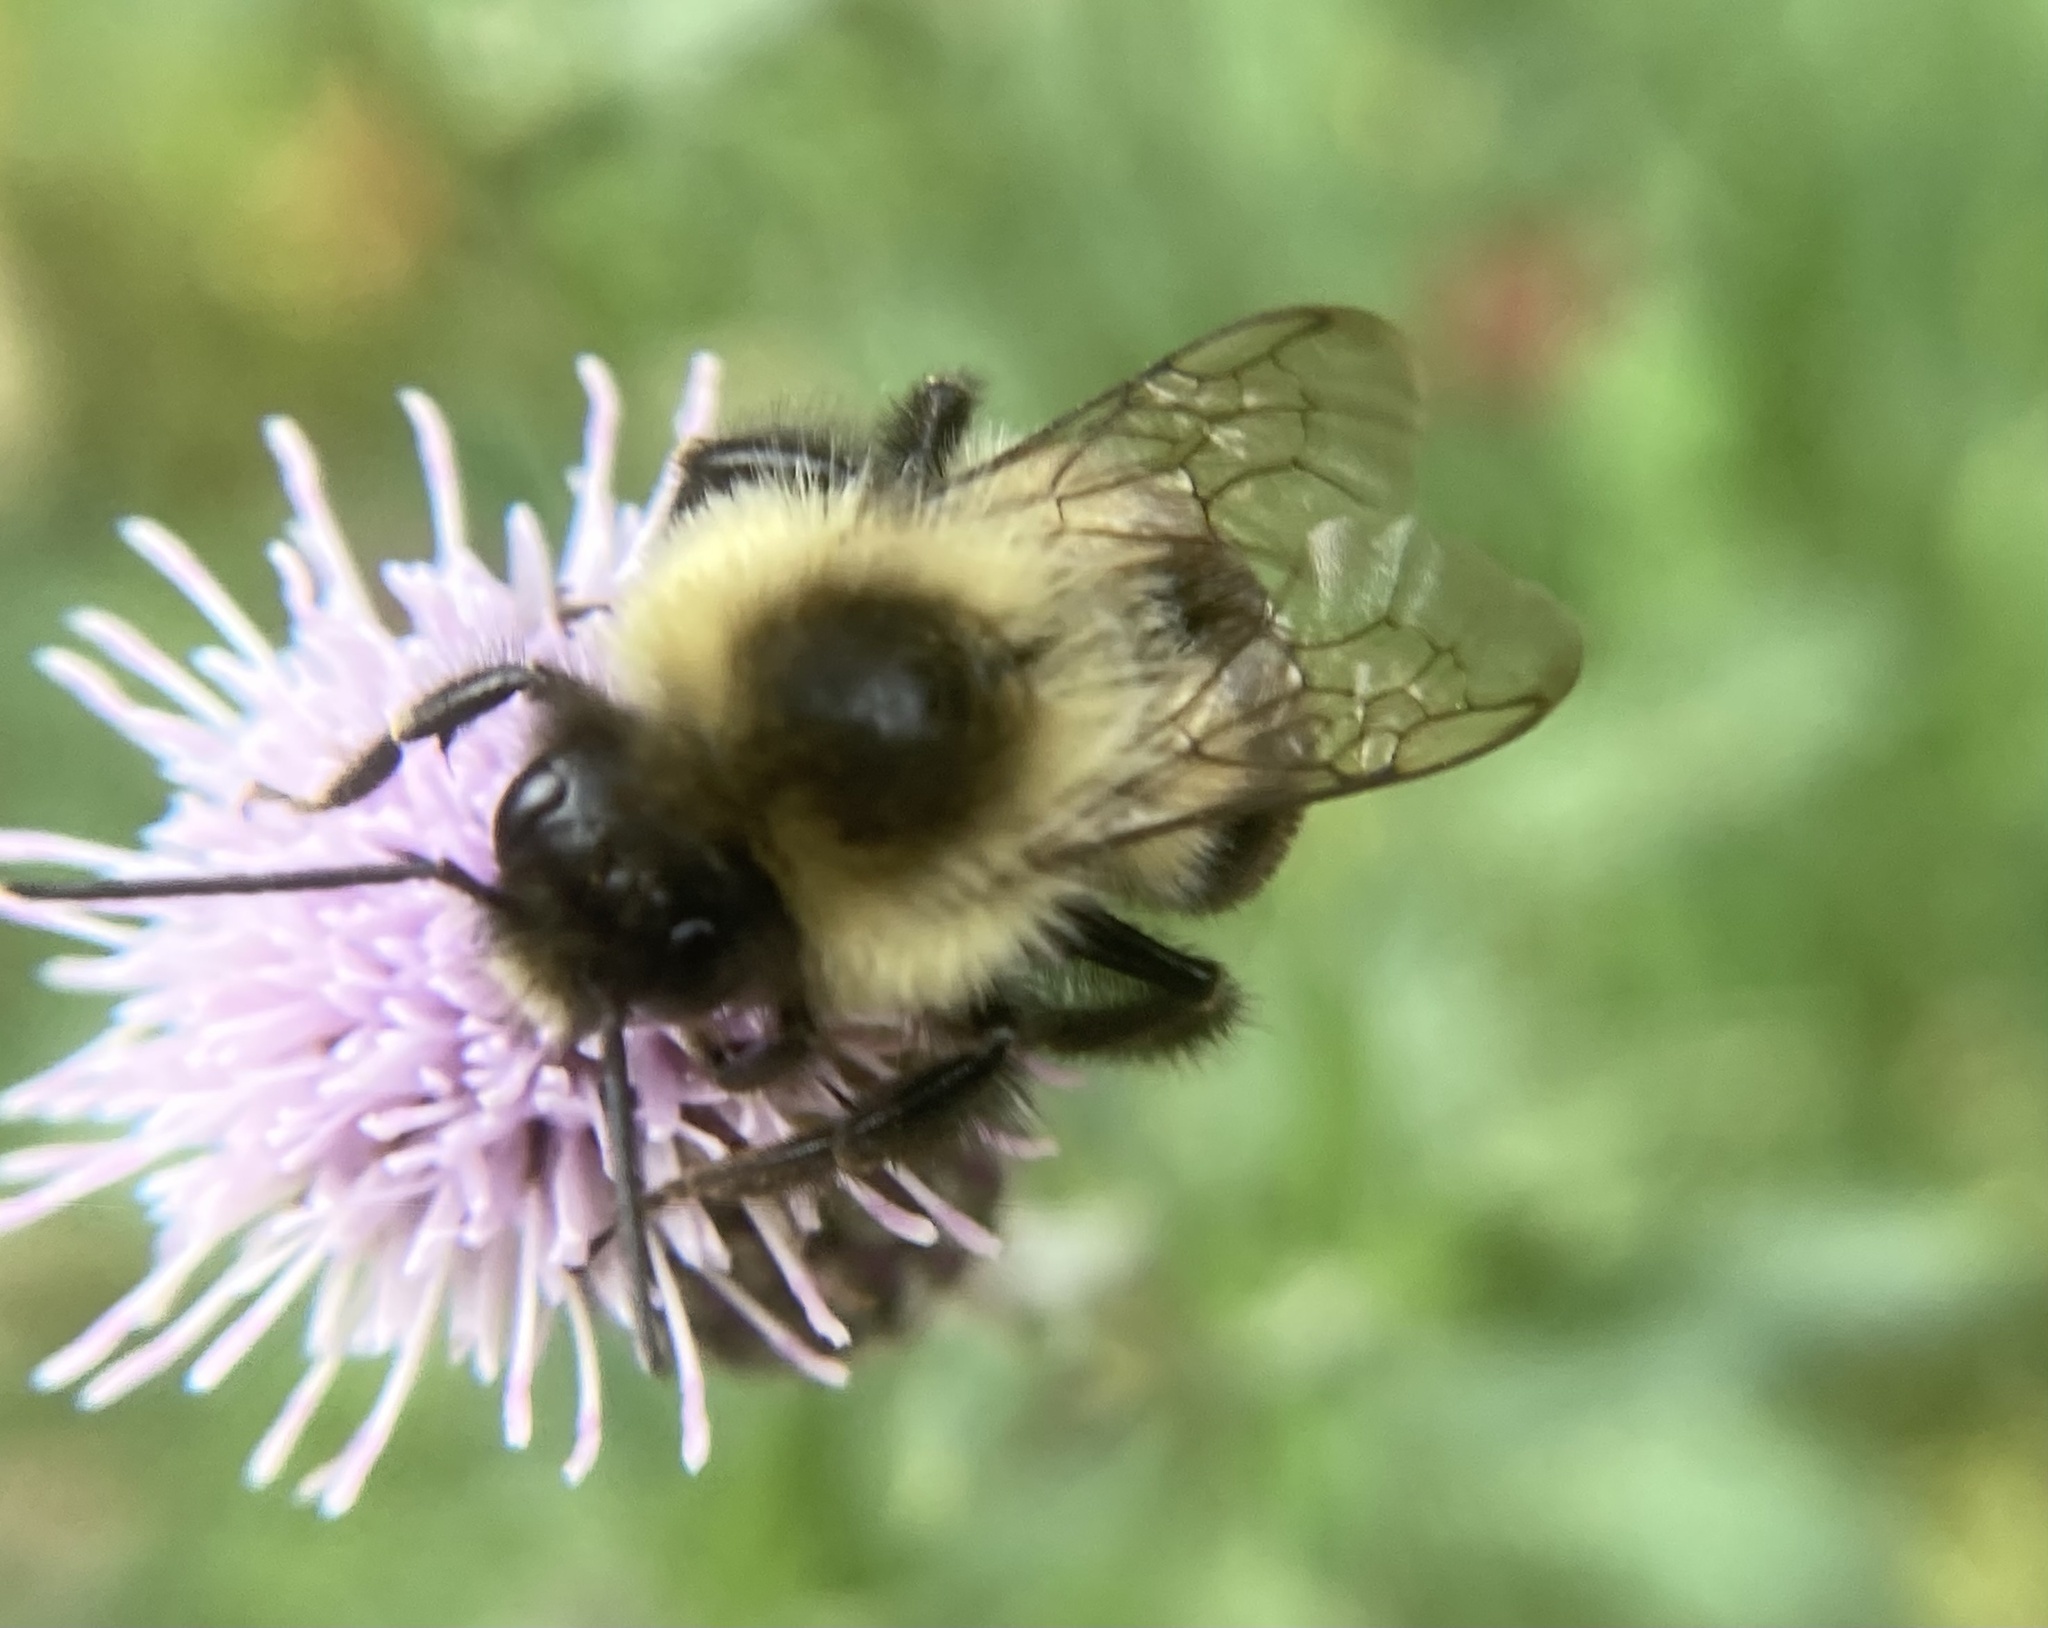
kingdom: Animalia
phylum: Arthropoda
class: Insecta
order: Hymenoptera
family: Apidae
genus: Bombus
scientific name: Bombus impatiens
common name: Common eastern bumble bee
